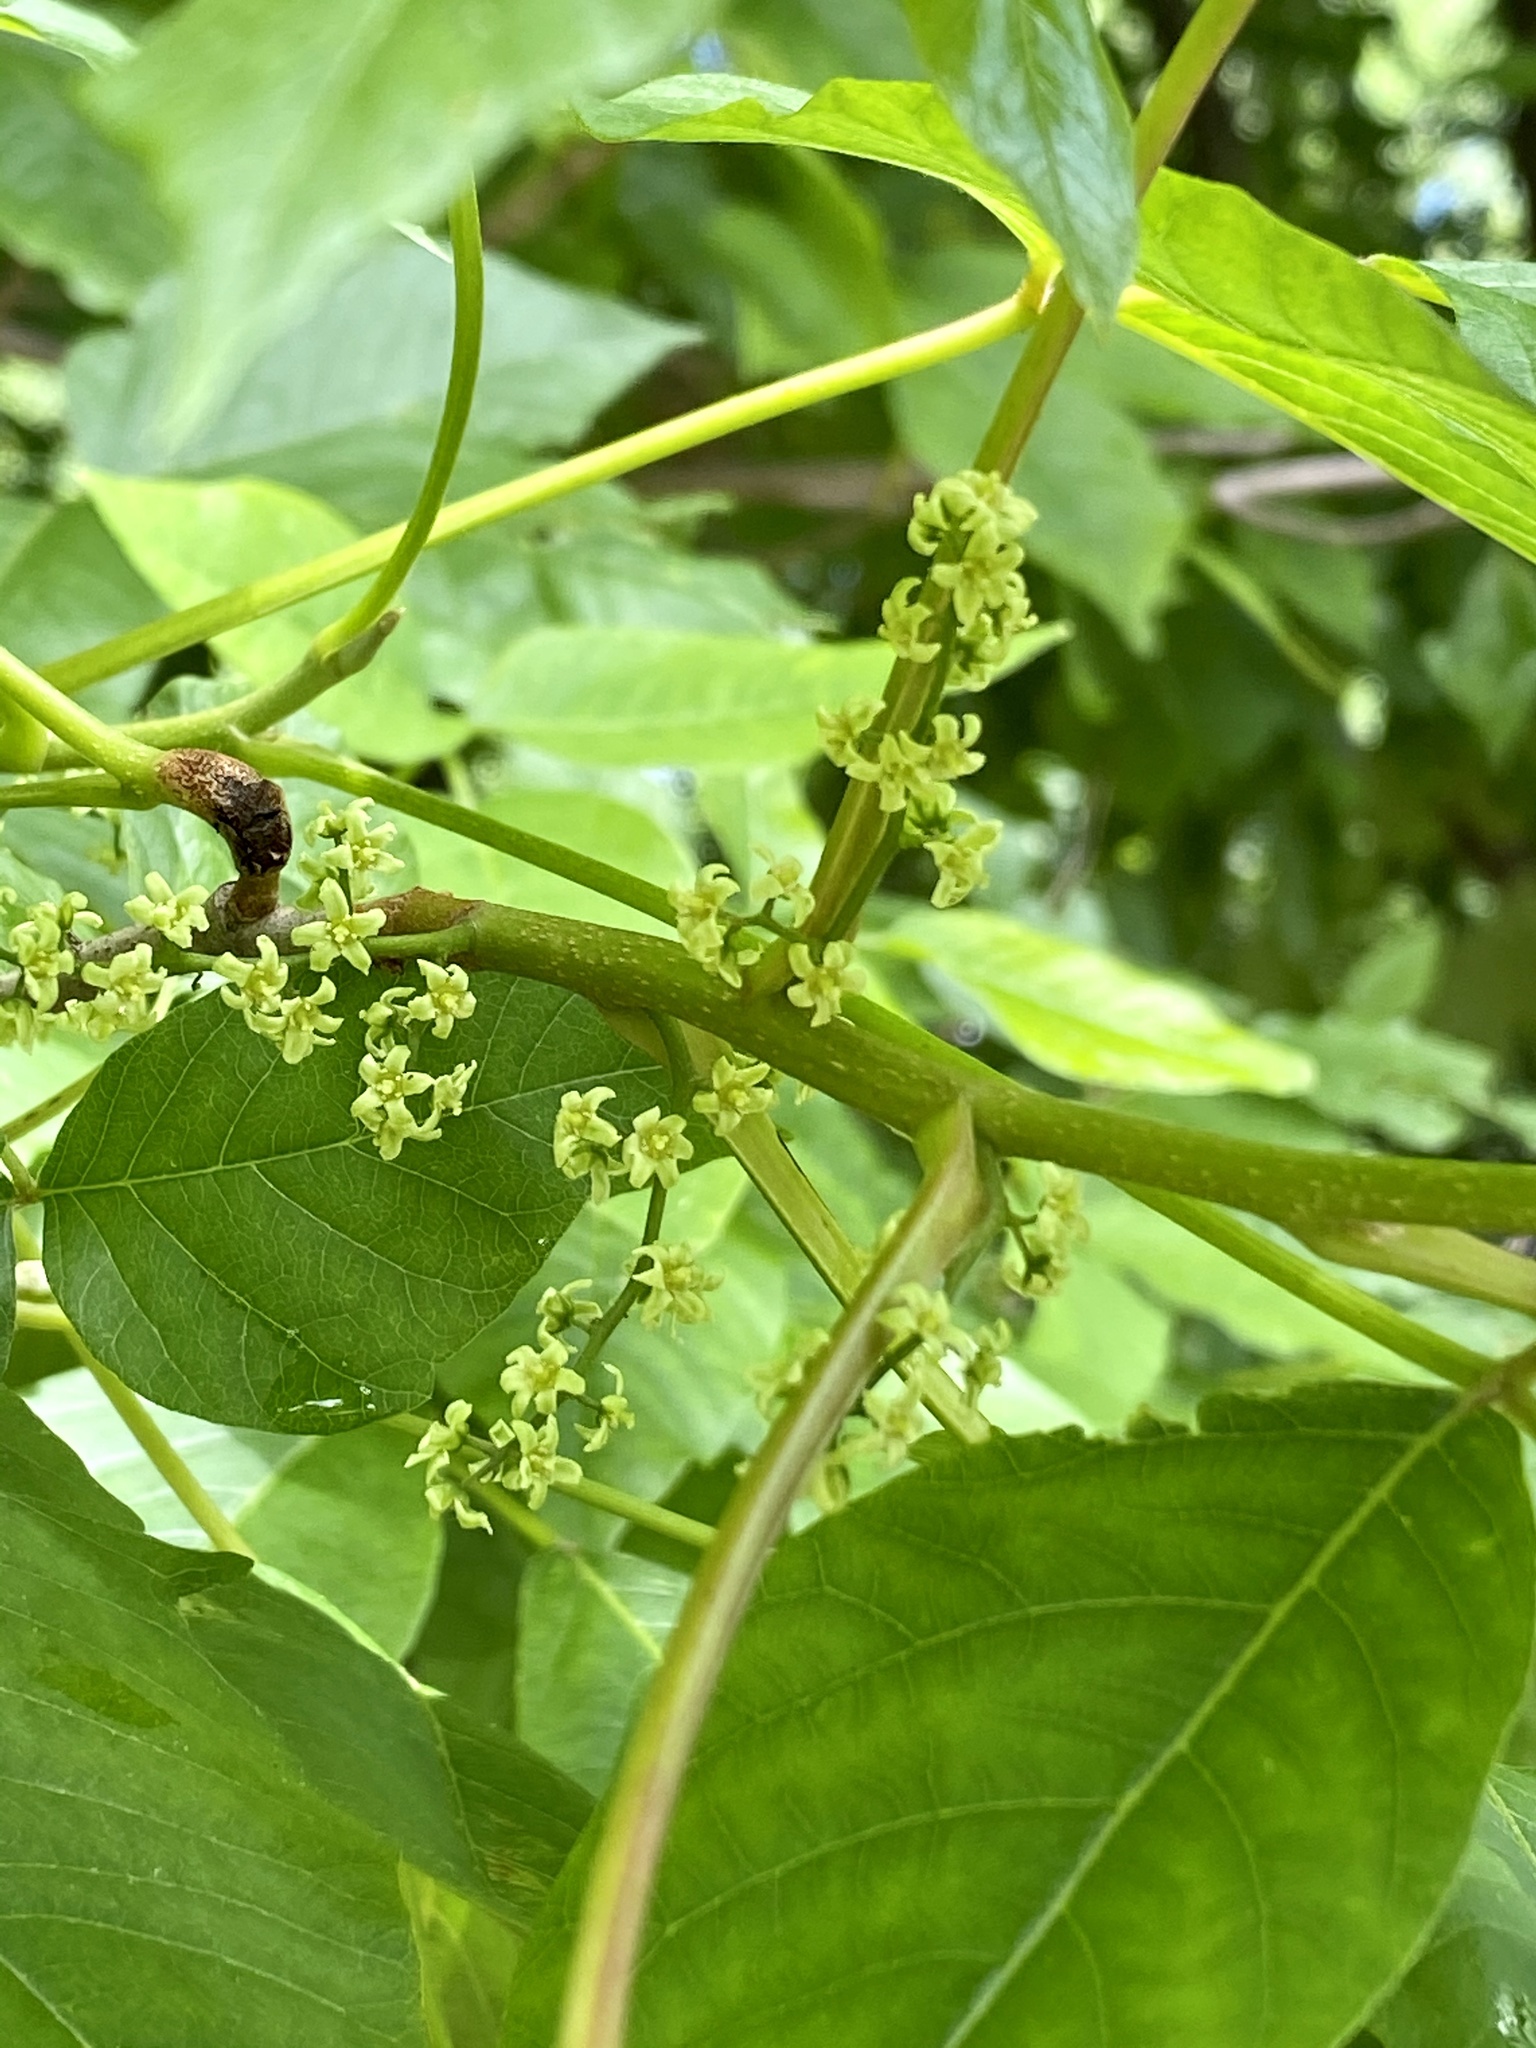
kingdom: Plantae
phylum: Tracheophyta
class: Magnoliopsida
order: Sapindales
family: Anacardiaceae
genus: Toxicodendron
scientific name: Toxicodendron radicans
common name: Poison ivy
